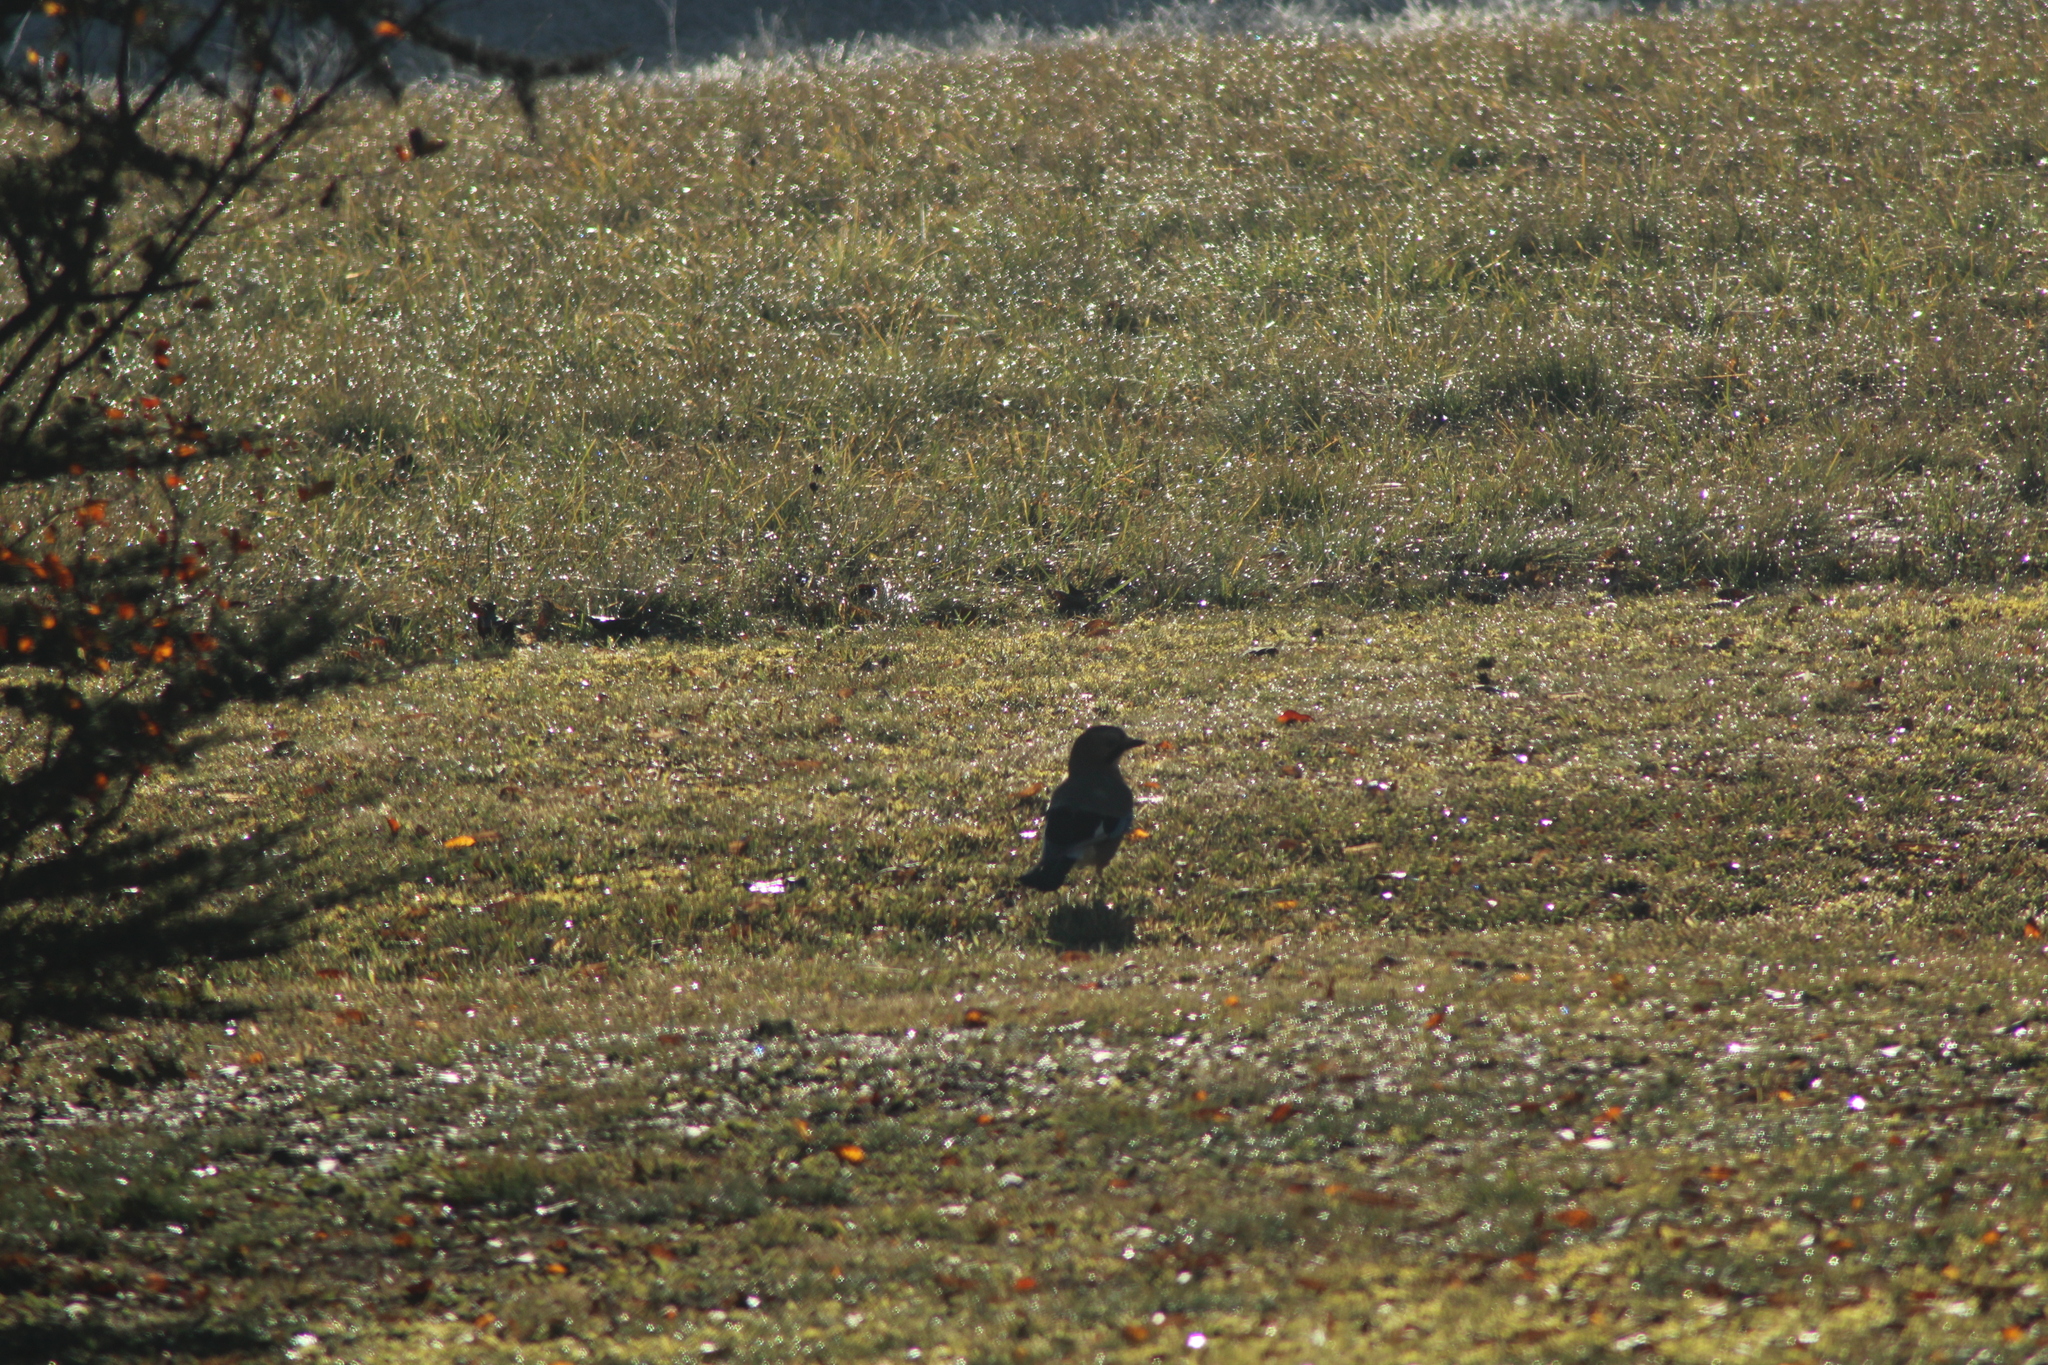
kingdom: Animalia
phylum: Chordata
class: Aves
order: Passeriformes
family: Corvidae
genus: Garrulus
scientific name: Garrulus glandarius
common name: Eurasian jay
